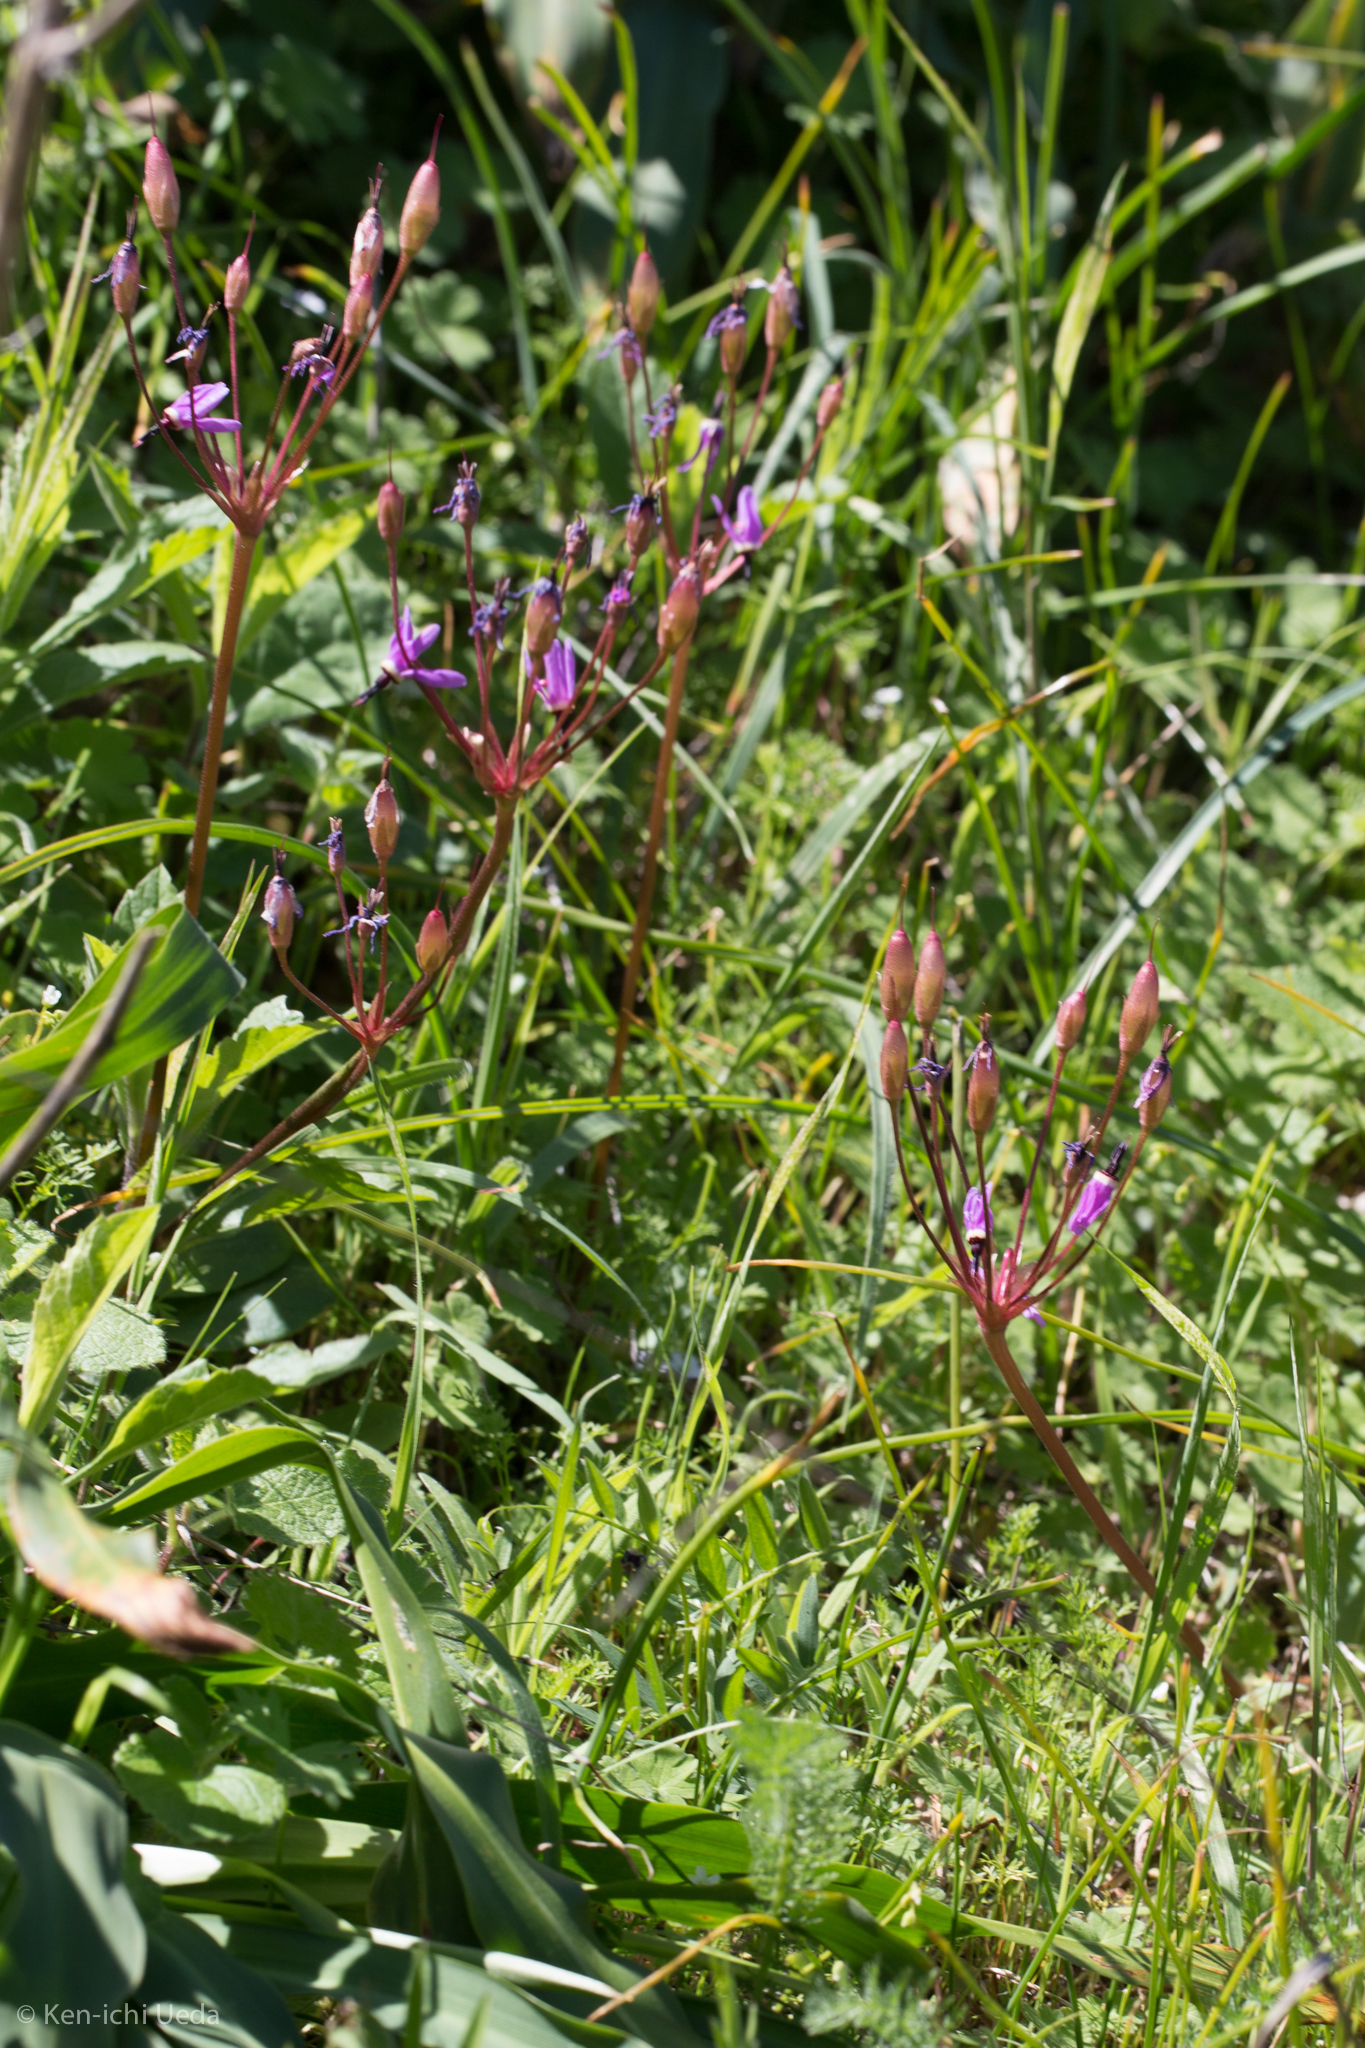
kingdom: Plantae
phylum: Tracheophyta
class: Magnoliopsida
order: Ericales
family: Primulaceae
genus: Dodecatheon
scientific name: Dodecatheon hendersonii
